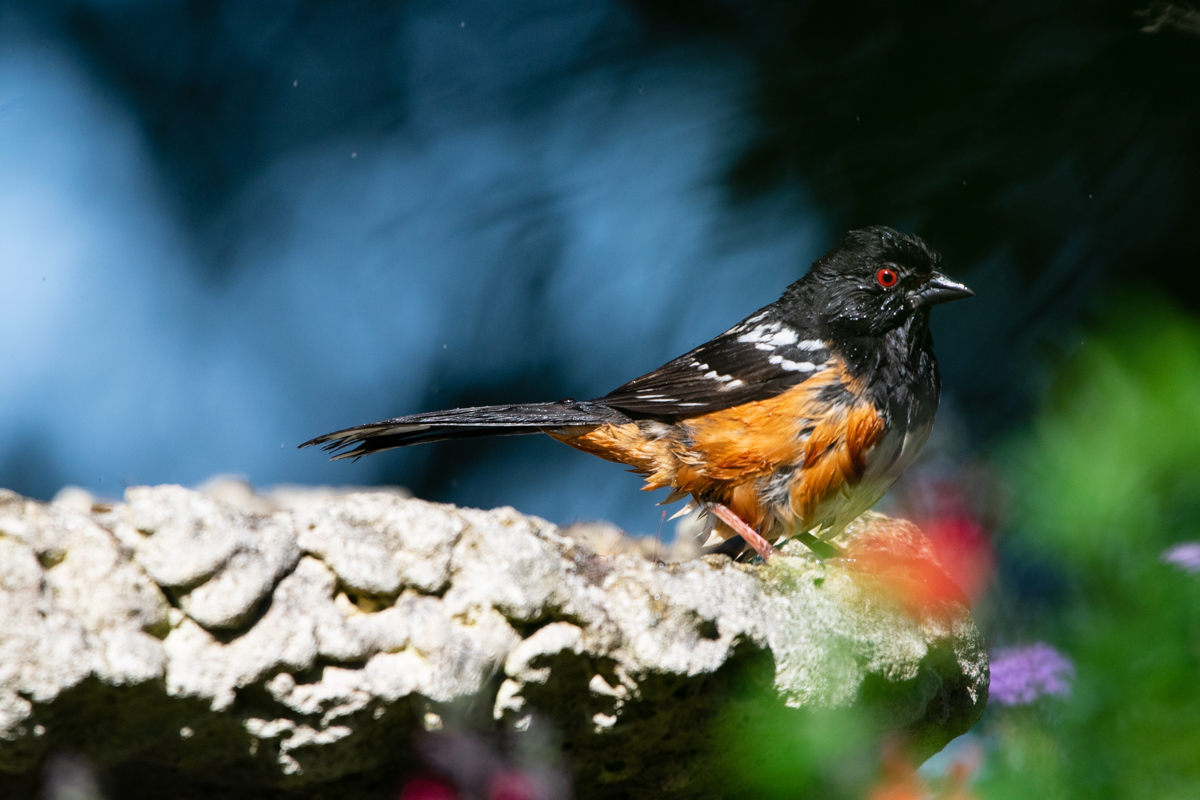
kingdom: Animalia
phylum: Chordata
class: Aves
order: Passeriformes
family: Passerellidae
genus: Pipilo
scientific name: Pipilo maculatus
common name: Spotted towhee
